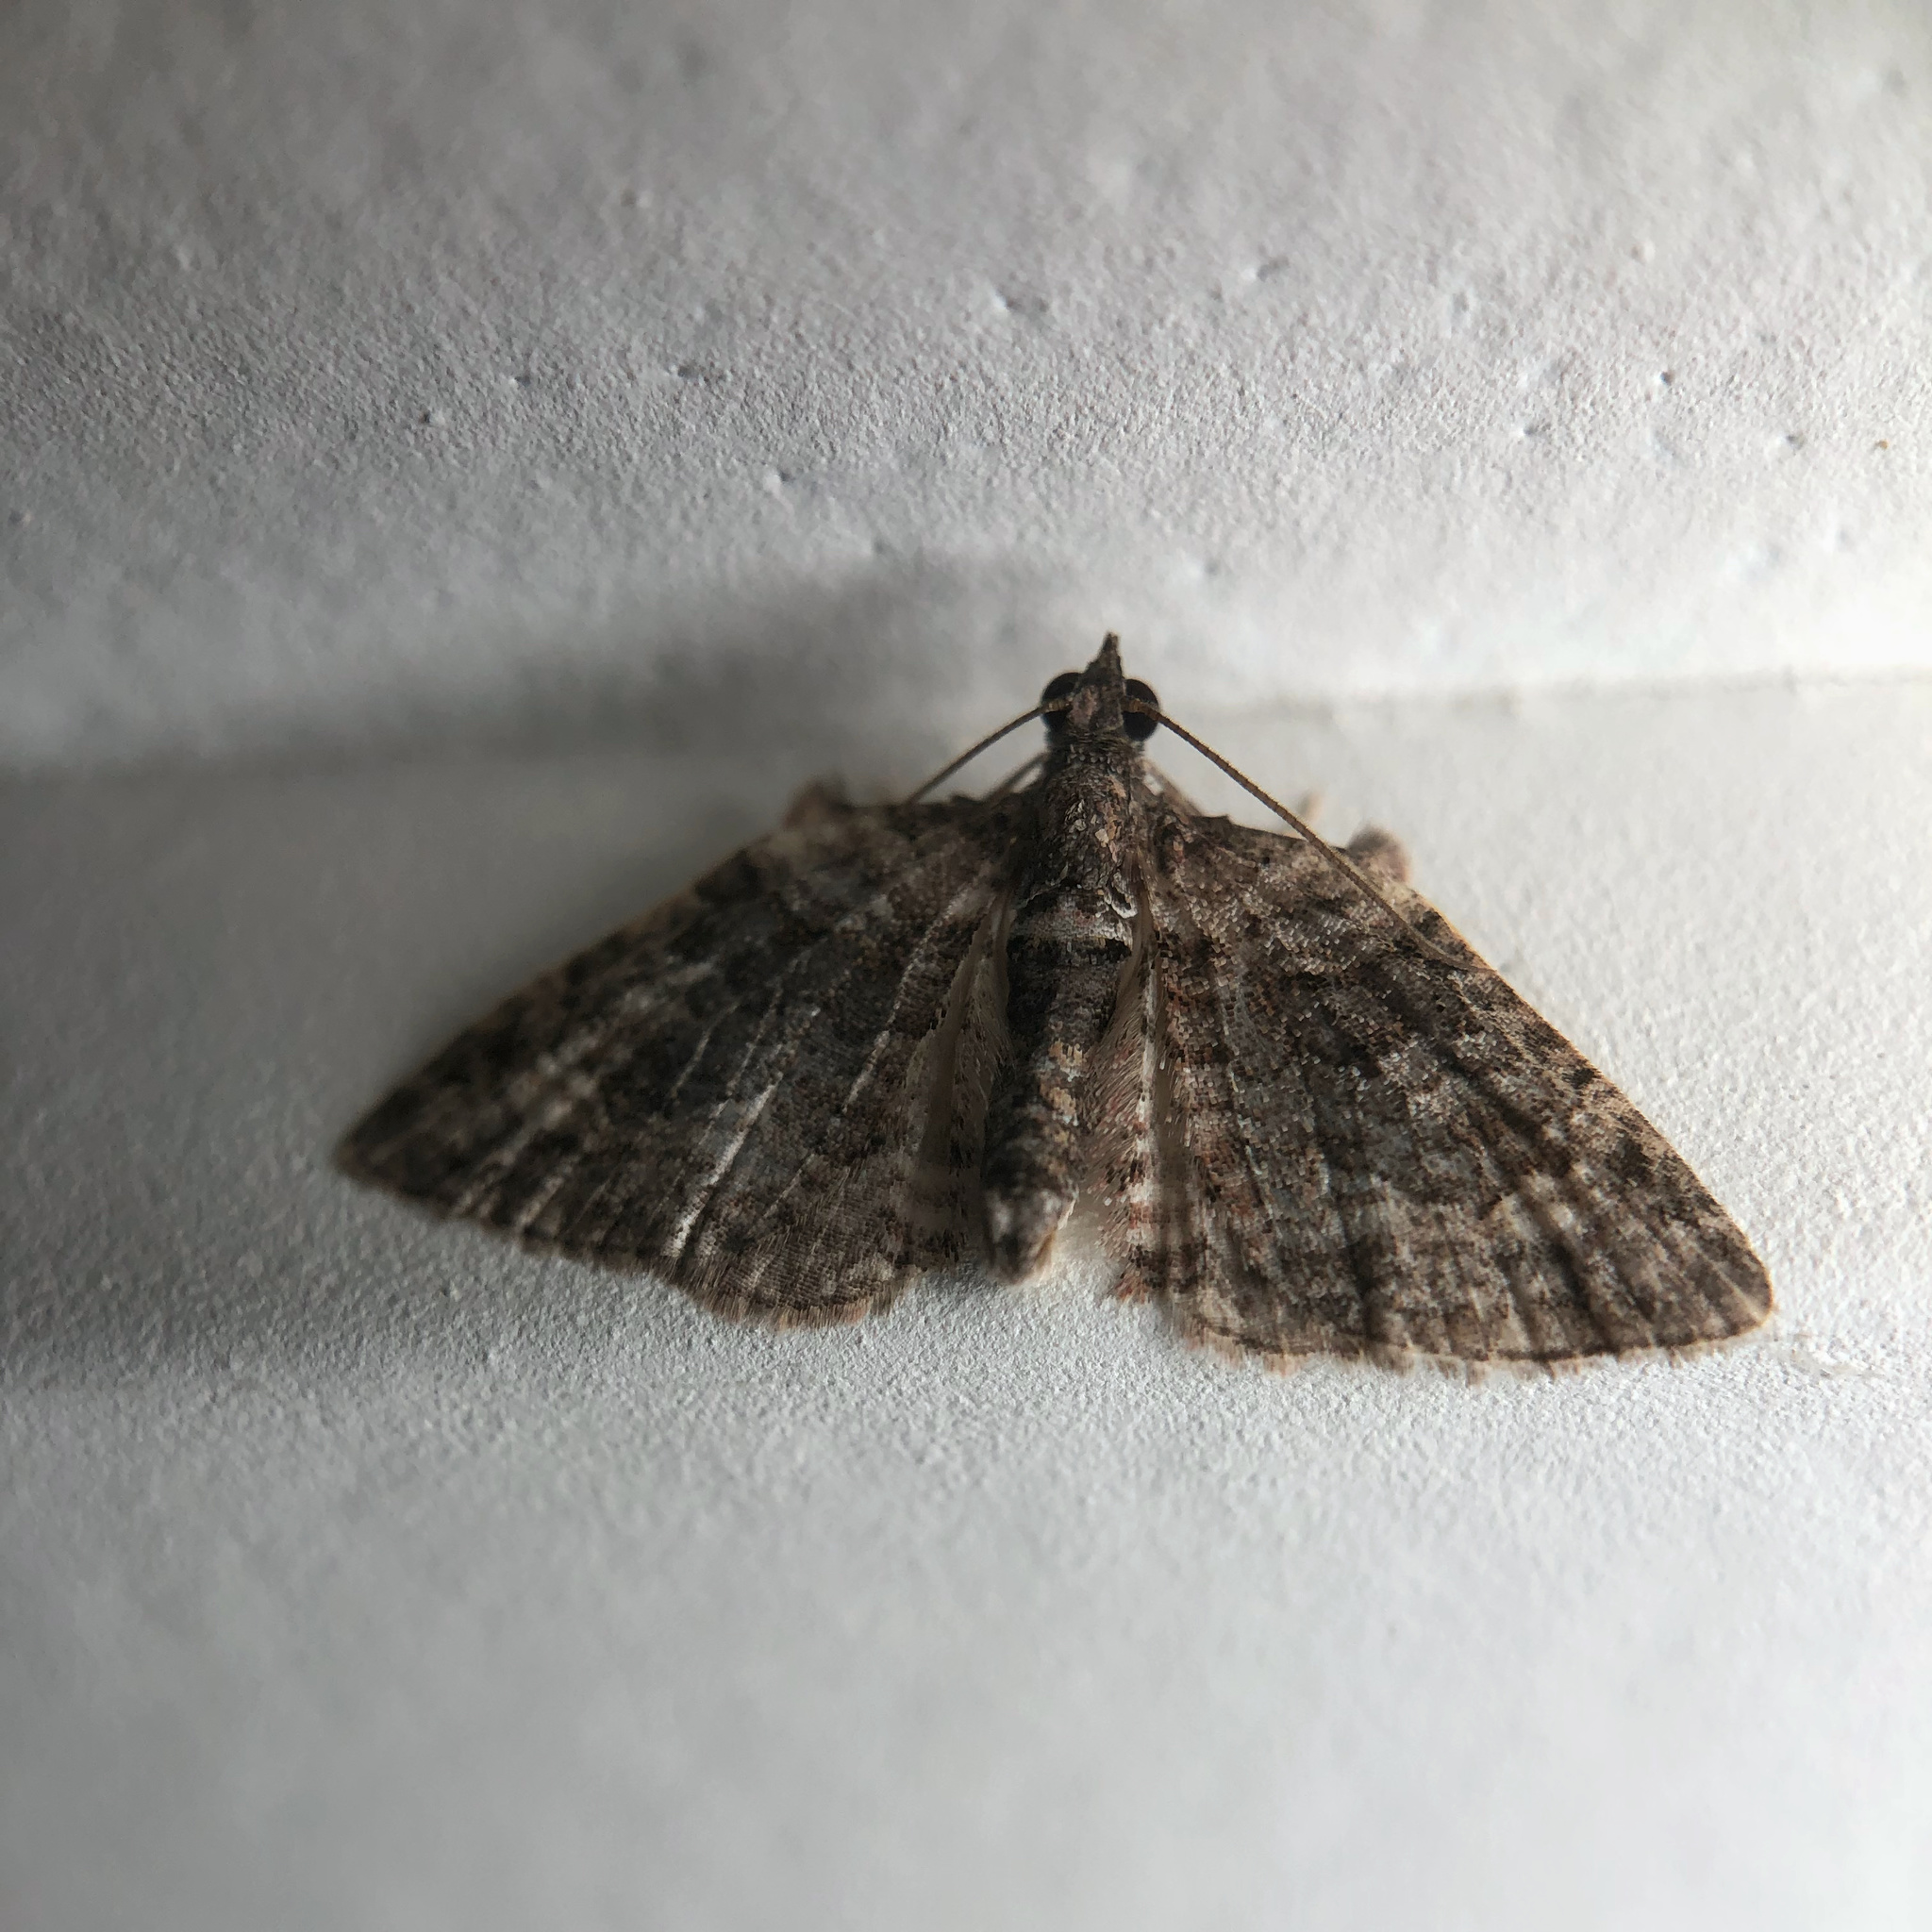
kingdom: Animalia
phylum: Arthropoda
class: Insecta
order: Lepidoptera
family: Geometridae
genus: Phrissogonus
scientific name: Phrissogonus laticostata
